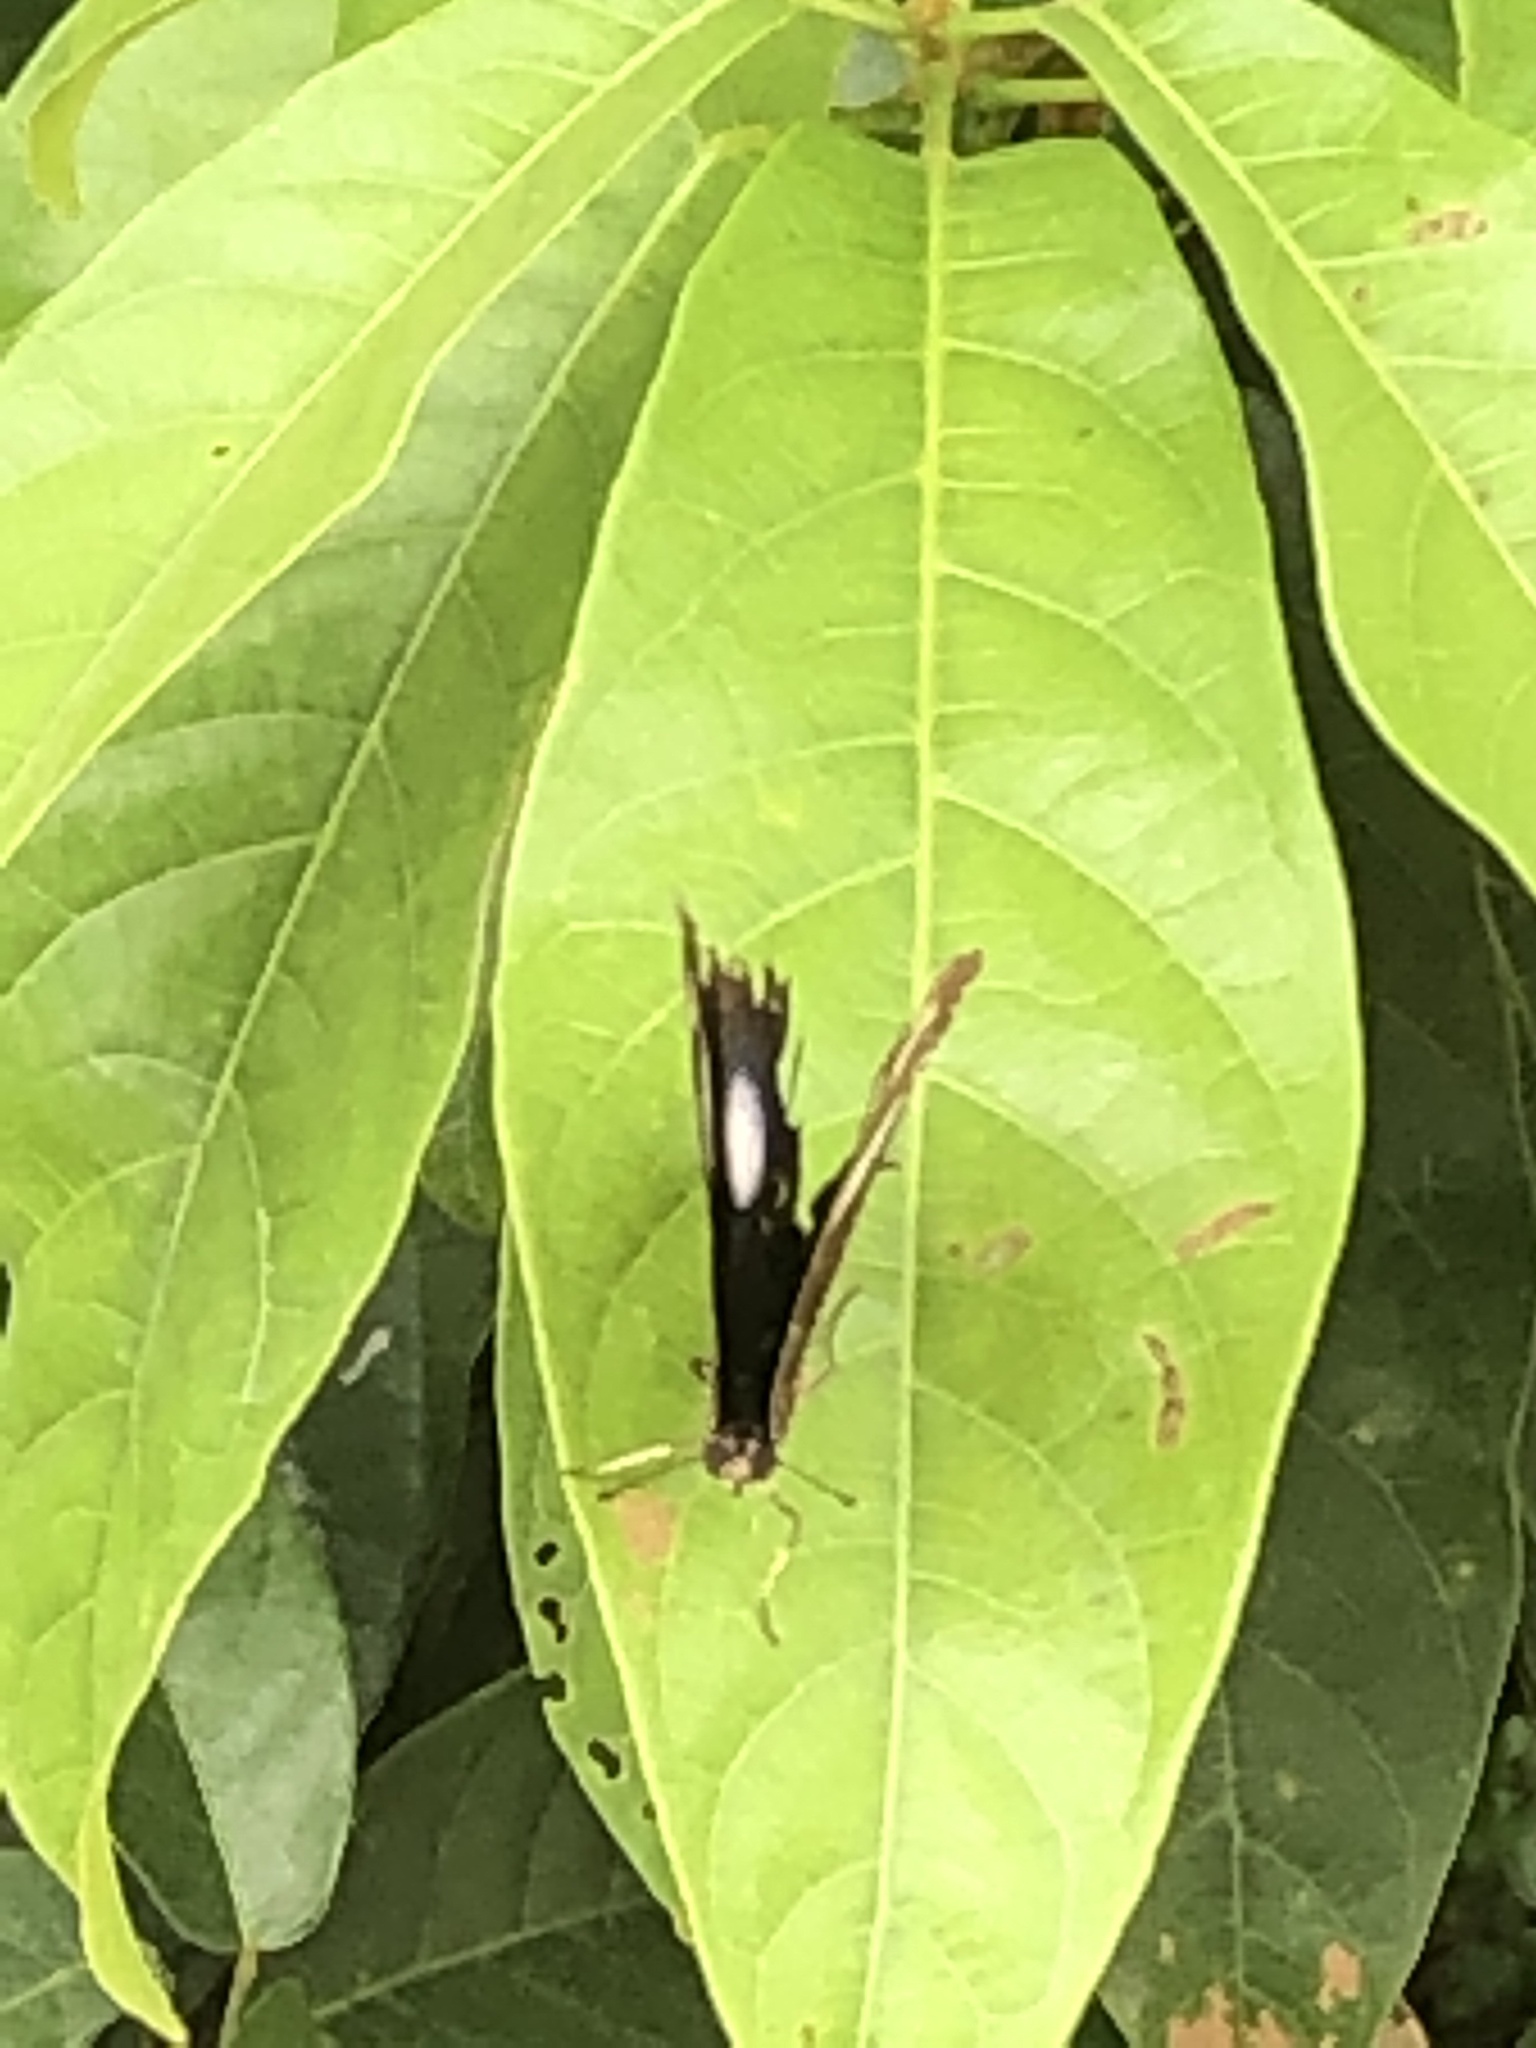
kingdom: Animalia
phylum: Arthropoda
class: Insecta
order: Lepidoptera
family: Nymphalidae
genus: Hypolimnas
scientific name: Hypolimnas bolina
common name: Great eggfly
